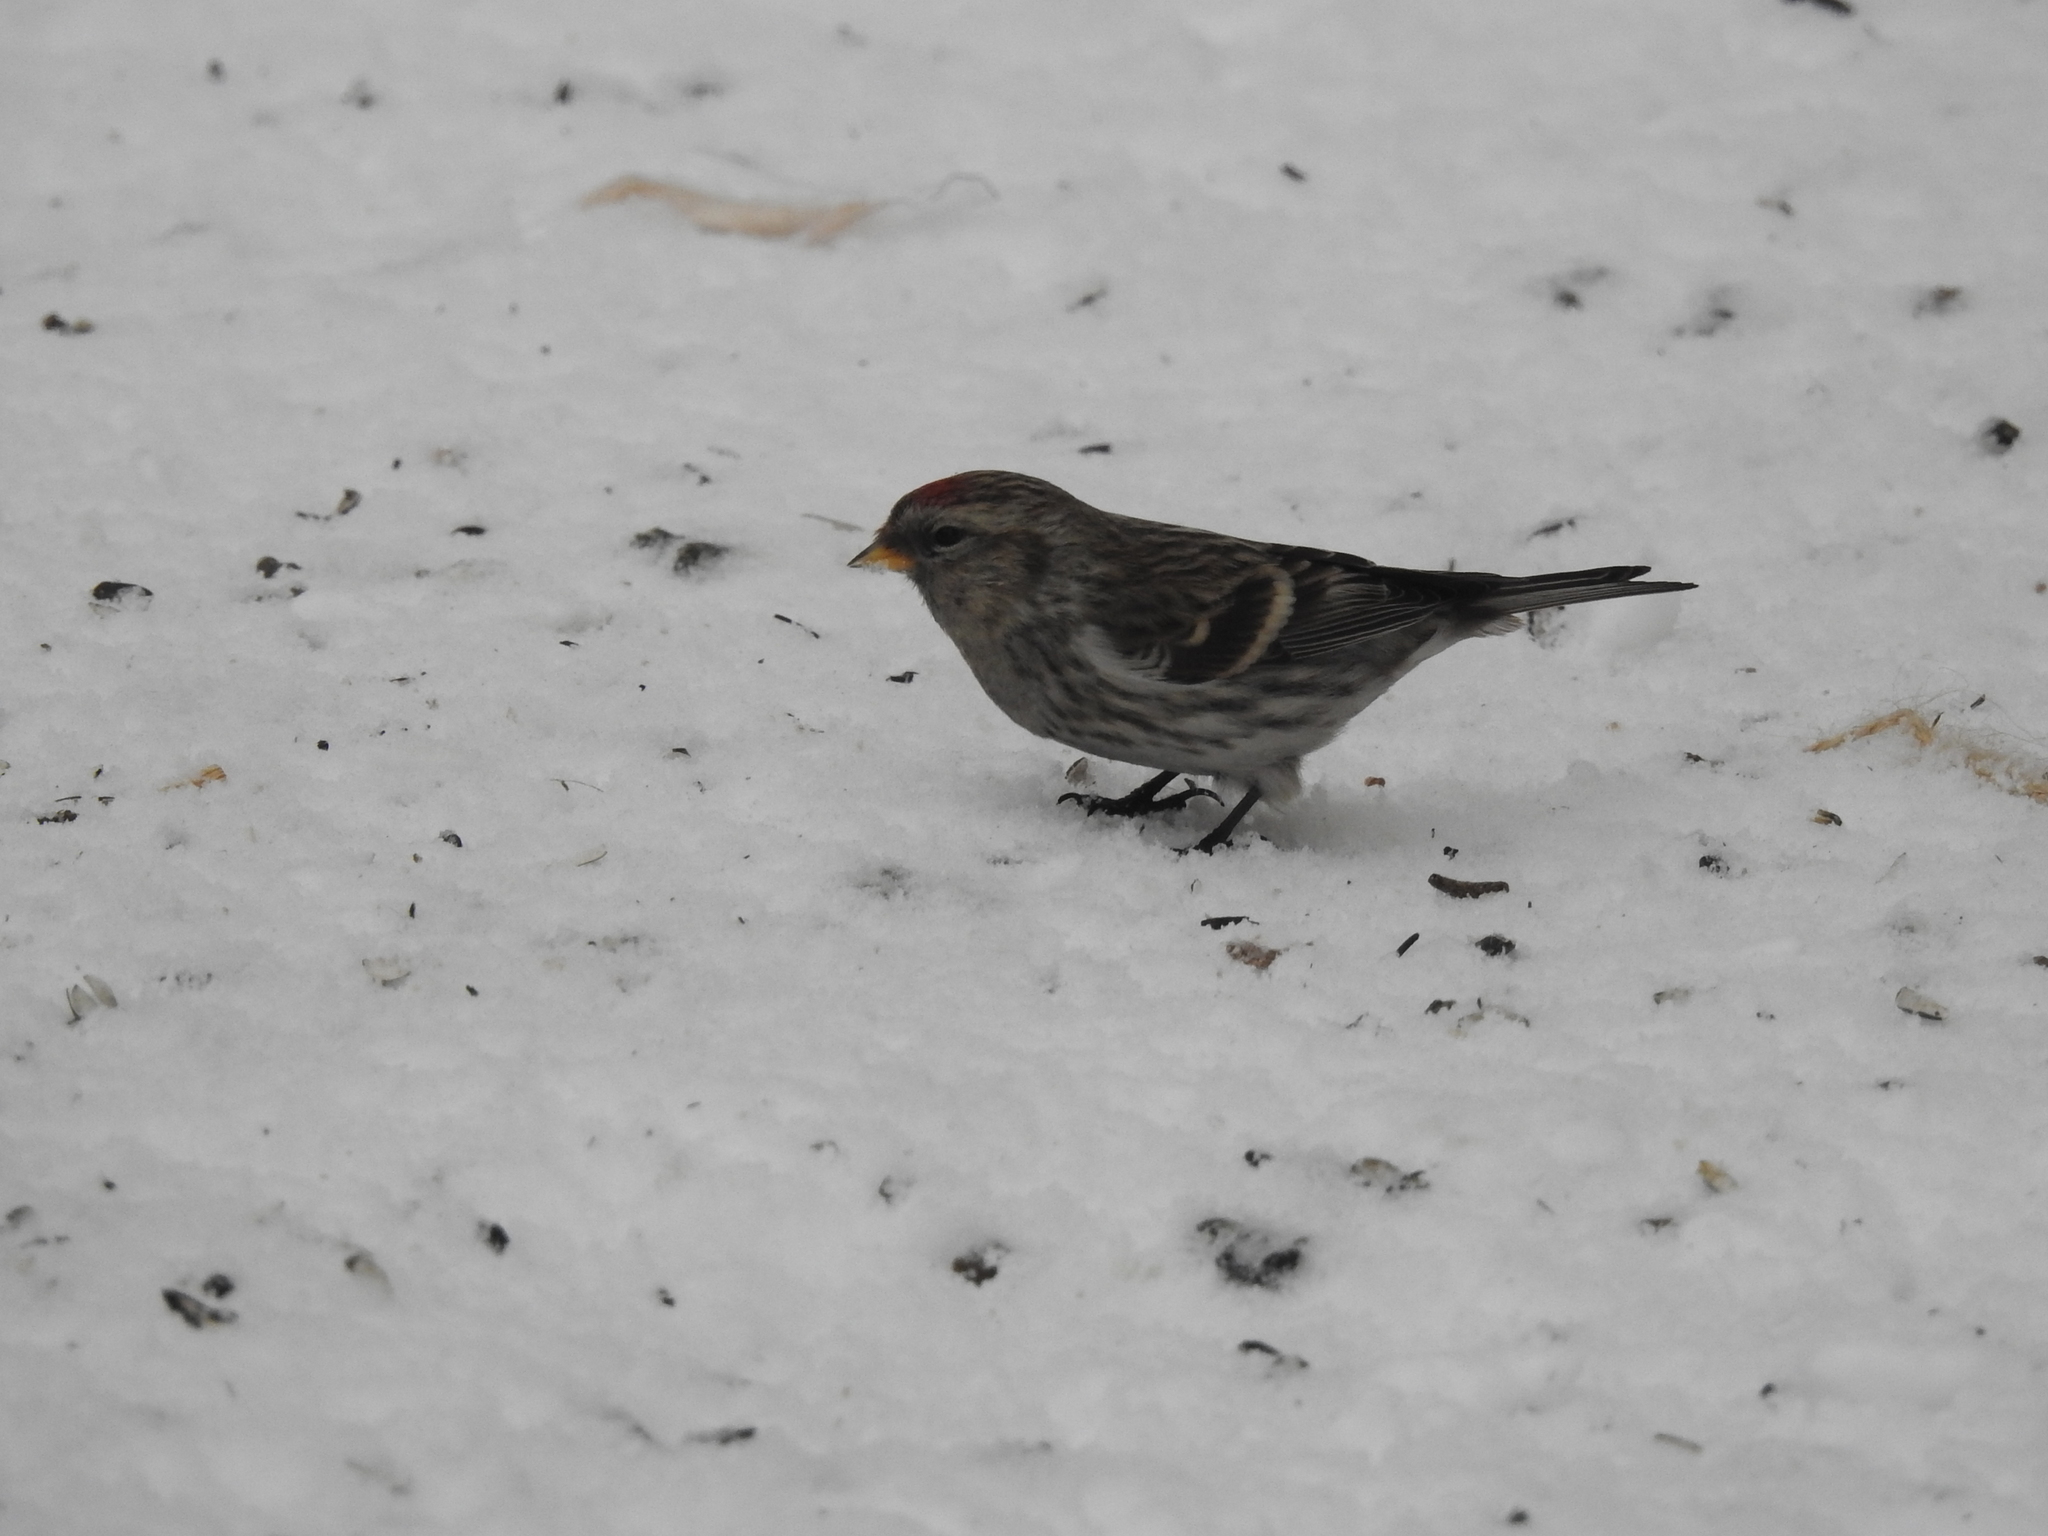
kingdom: Animalia
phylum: Chordata
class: Aves
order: Passeriformes
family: Fringillidae
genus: Acanthis
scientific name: Acanthis flammea
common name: Common redpoll
